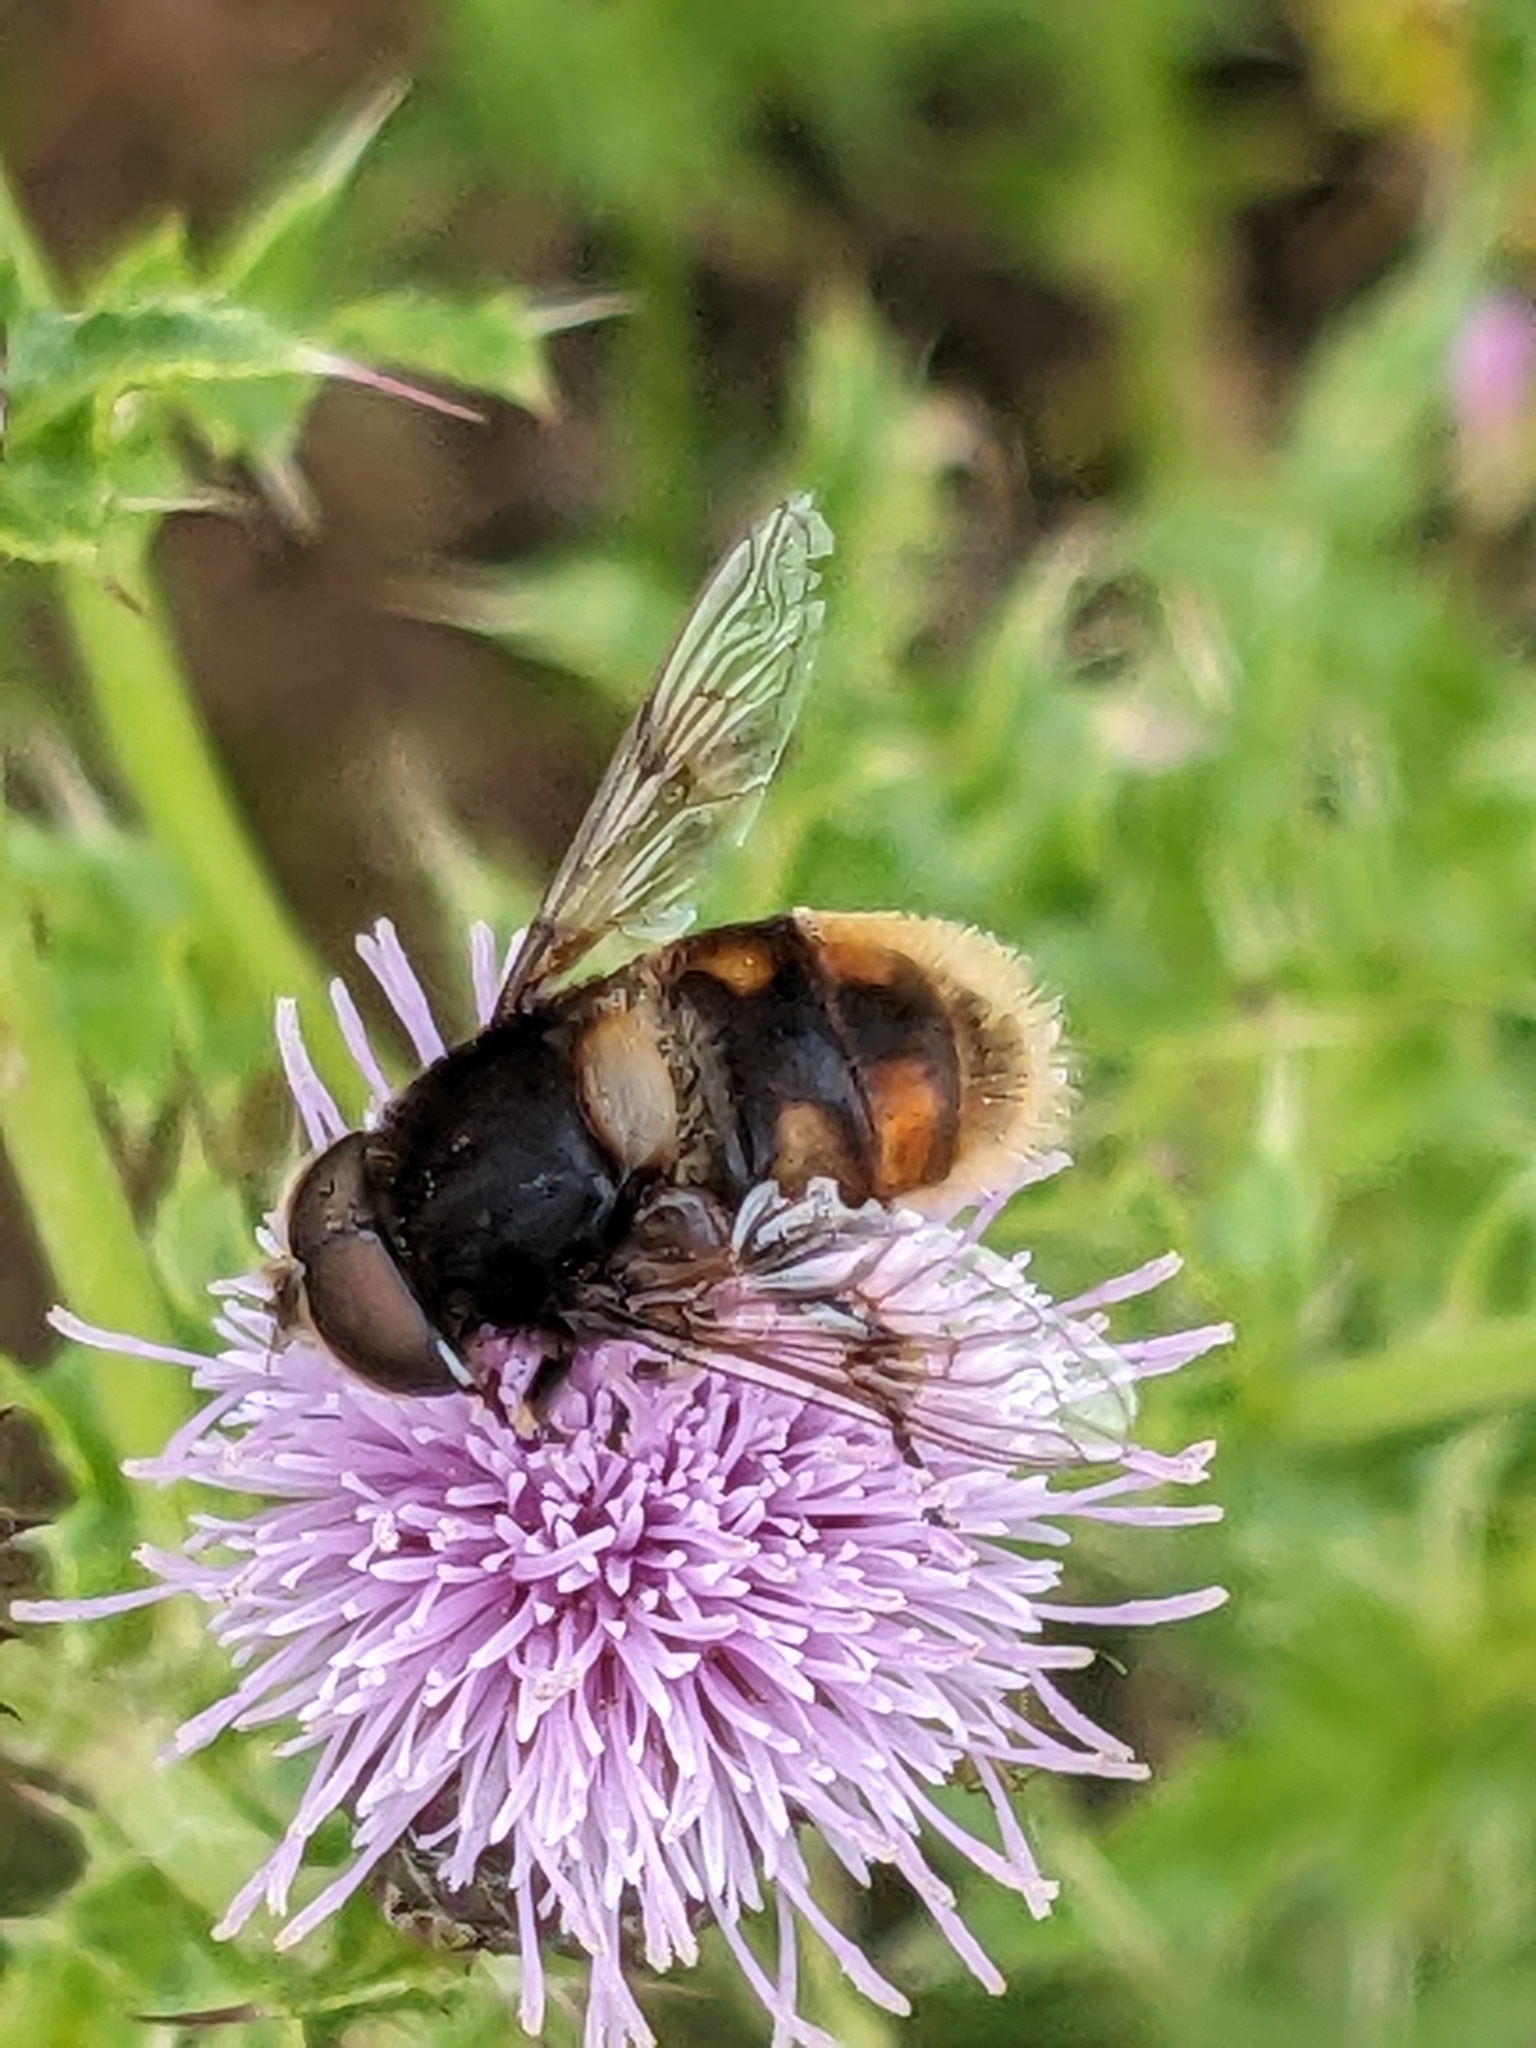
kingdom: Animalia
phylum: Arthropoda
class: Insecta
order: Diptera
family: Syrphidae
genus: Eristalis
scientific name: Eristalis intricaria
